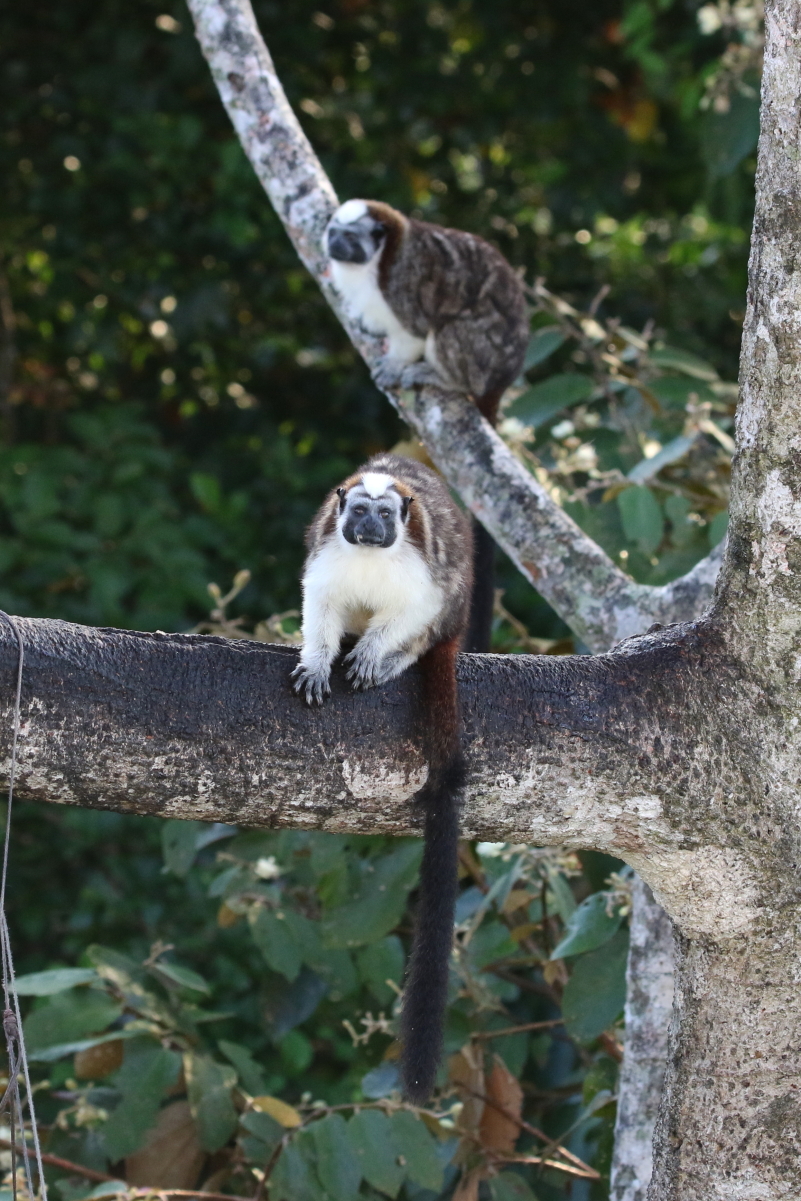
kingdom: Animalia
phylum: Chordata
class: Mammalia
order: Primates
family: Callitrichidae
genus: Saguinus
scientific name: Saguinus geoffroyi
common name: Geoffroy s tamarin
